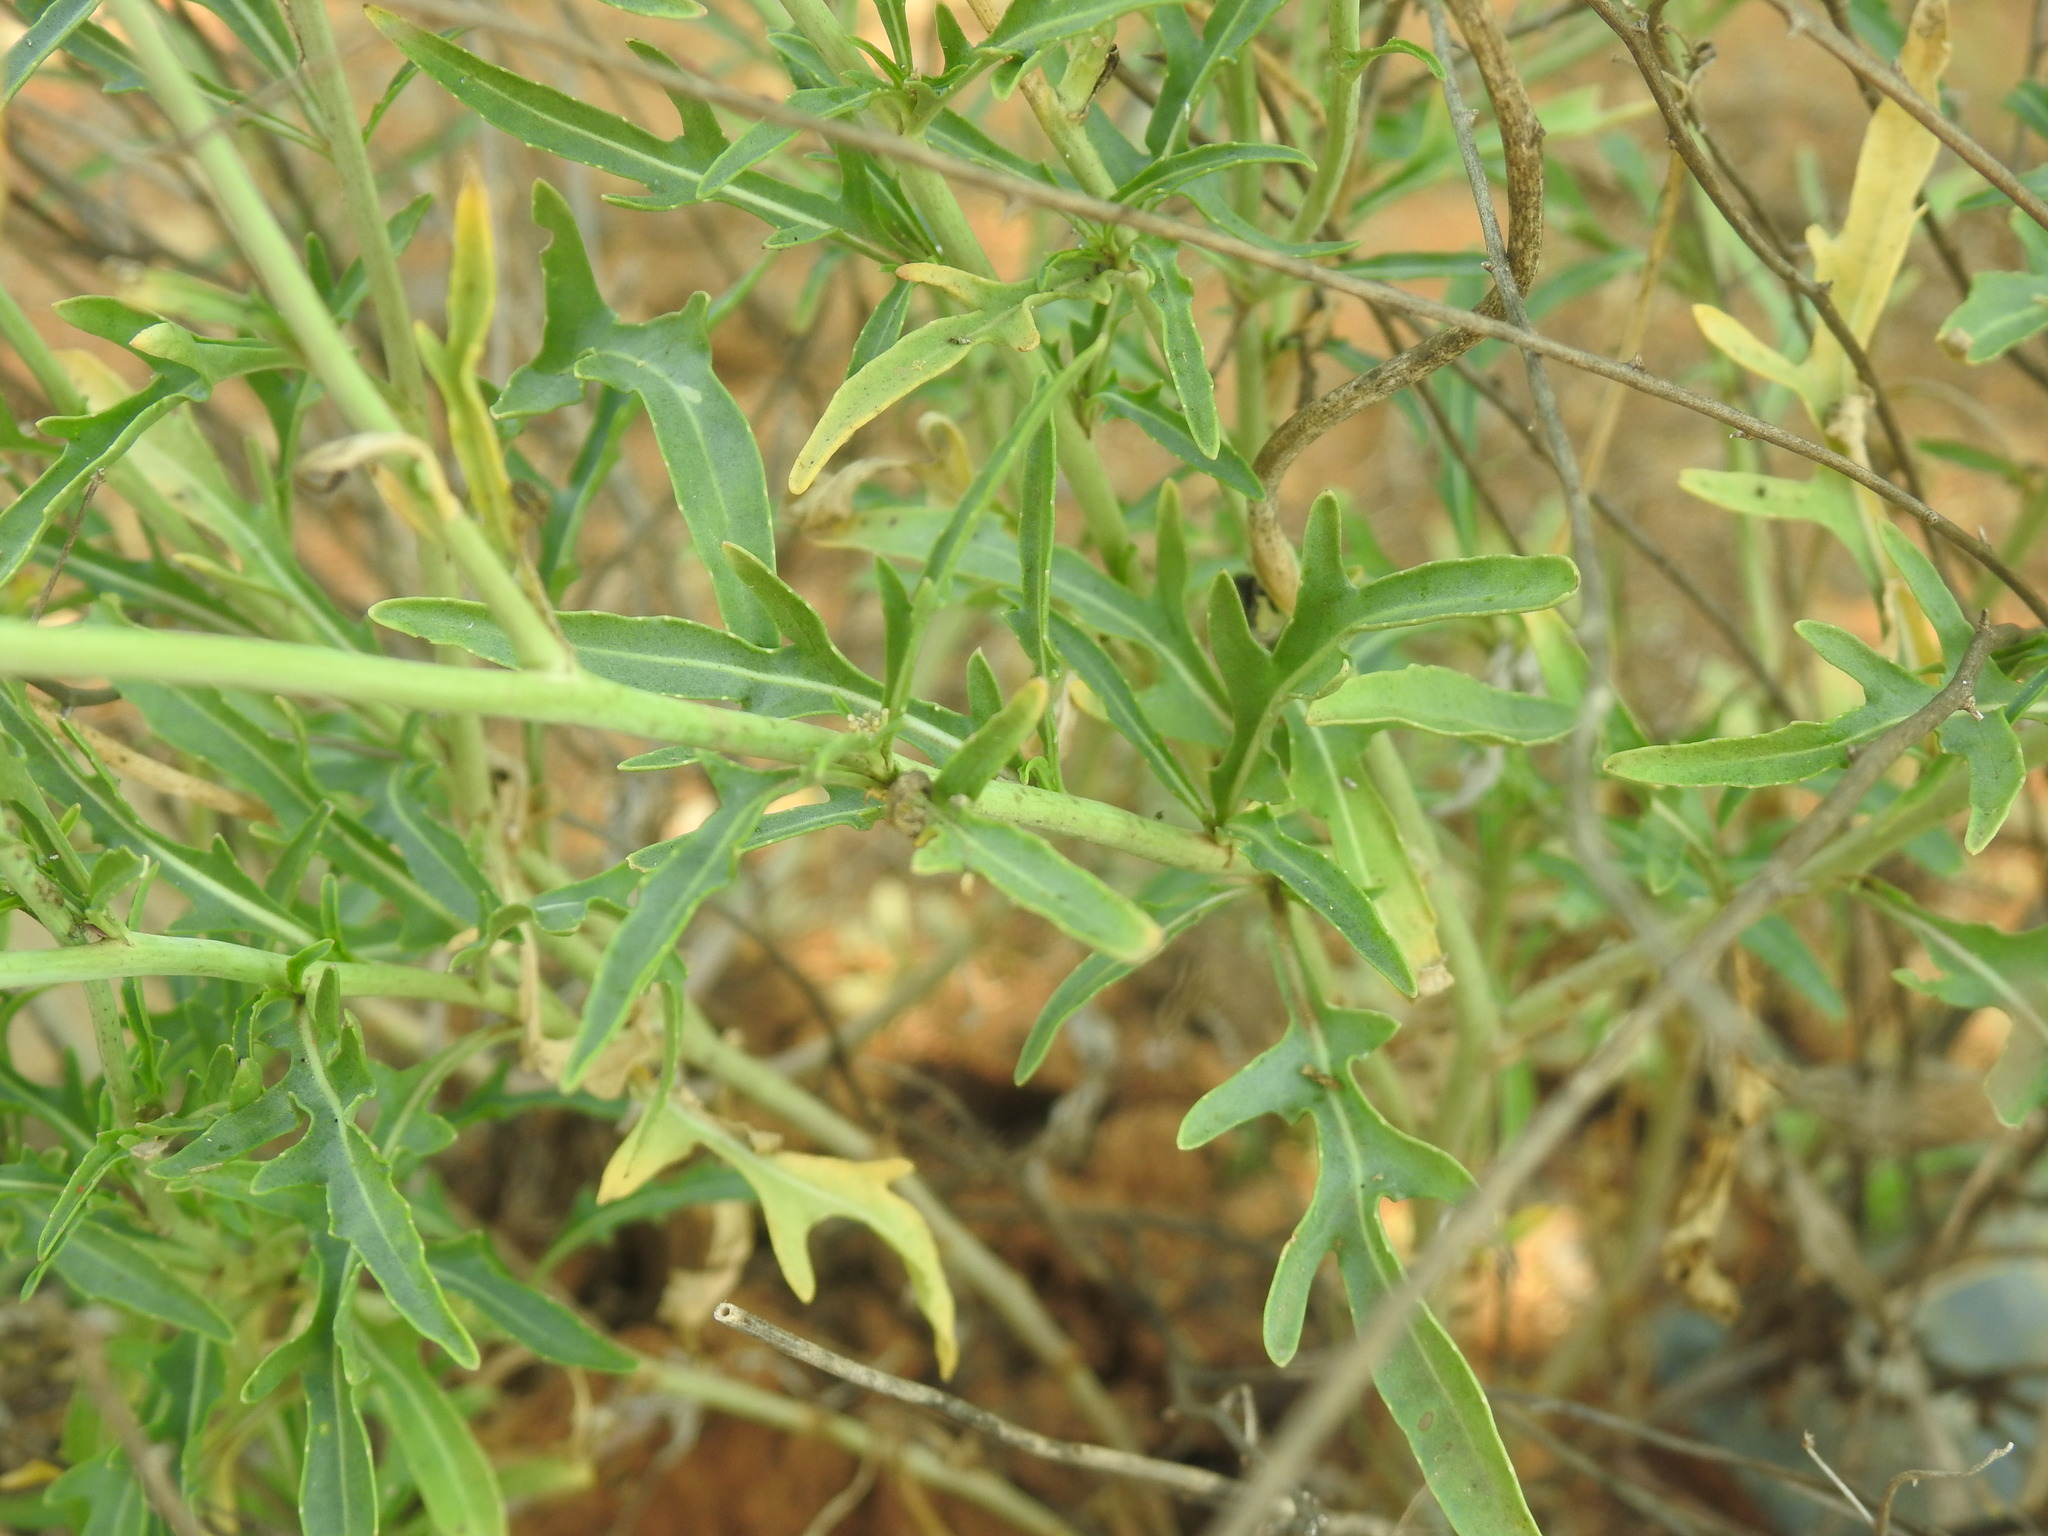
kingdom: Plantae
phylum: Tracheophyta
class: Magnoliopsida
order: Brassicales
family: Brassicaceae
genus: Diplotaxis
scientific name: Diplotaxis tenuifolia
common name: Perennial wall-rocket
